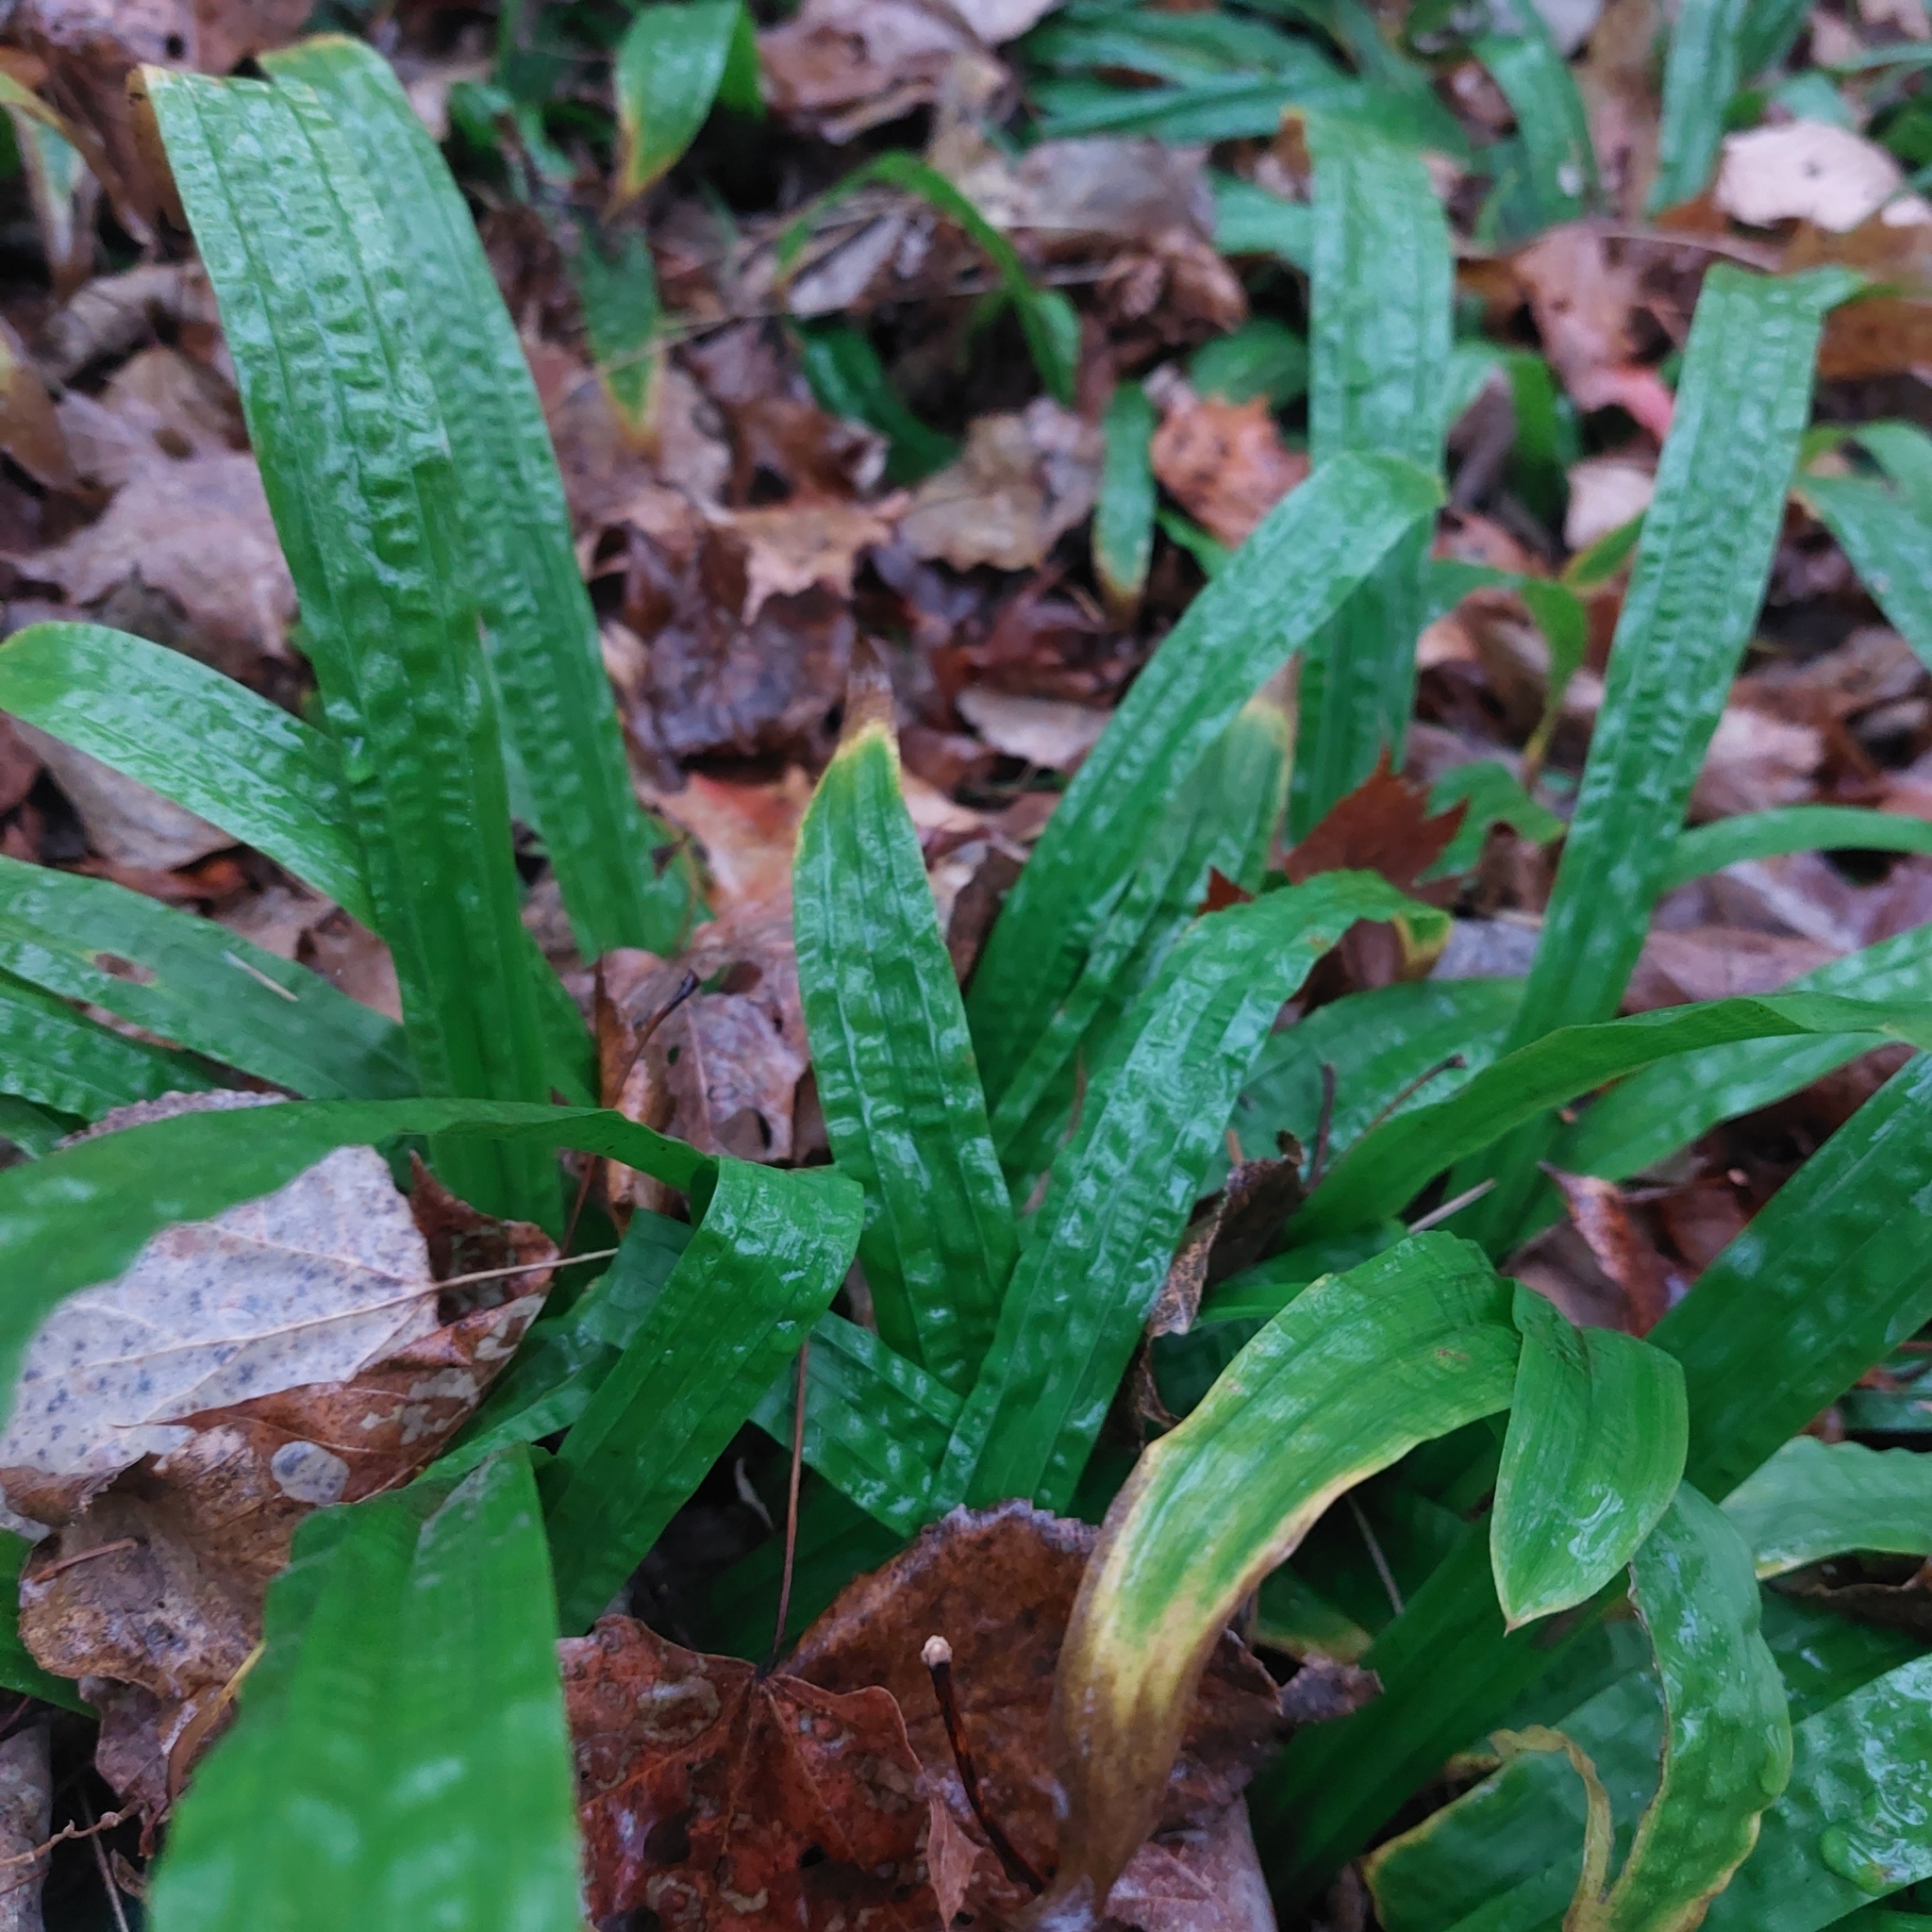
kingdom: Plantae
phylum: Tracheophyta
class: Liliopsida
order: Poales
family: Cyperaceae
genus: Carex
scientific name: Carex plantaginea
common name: Plantain-leaved sedge
